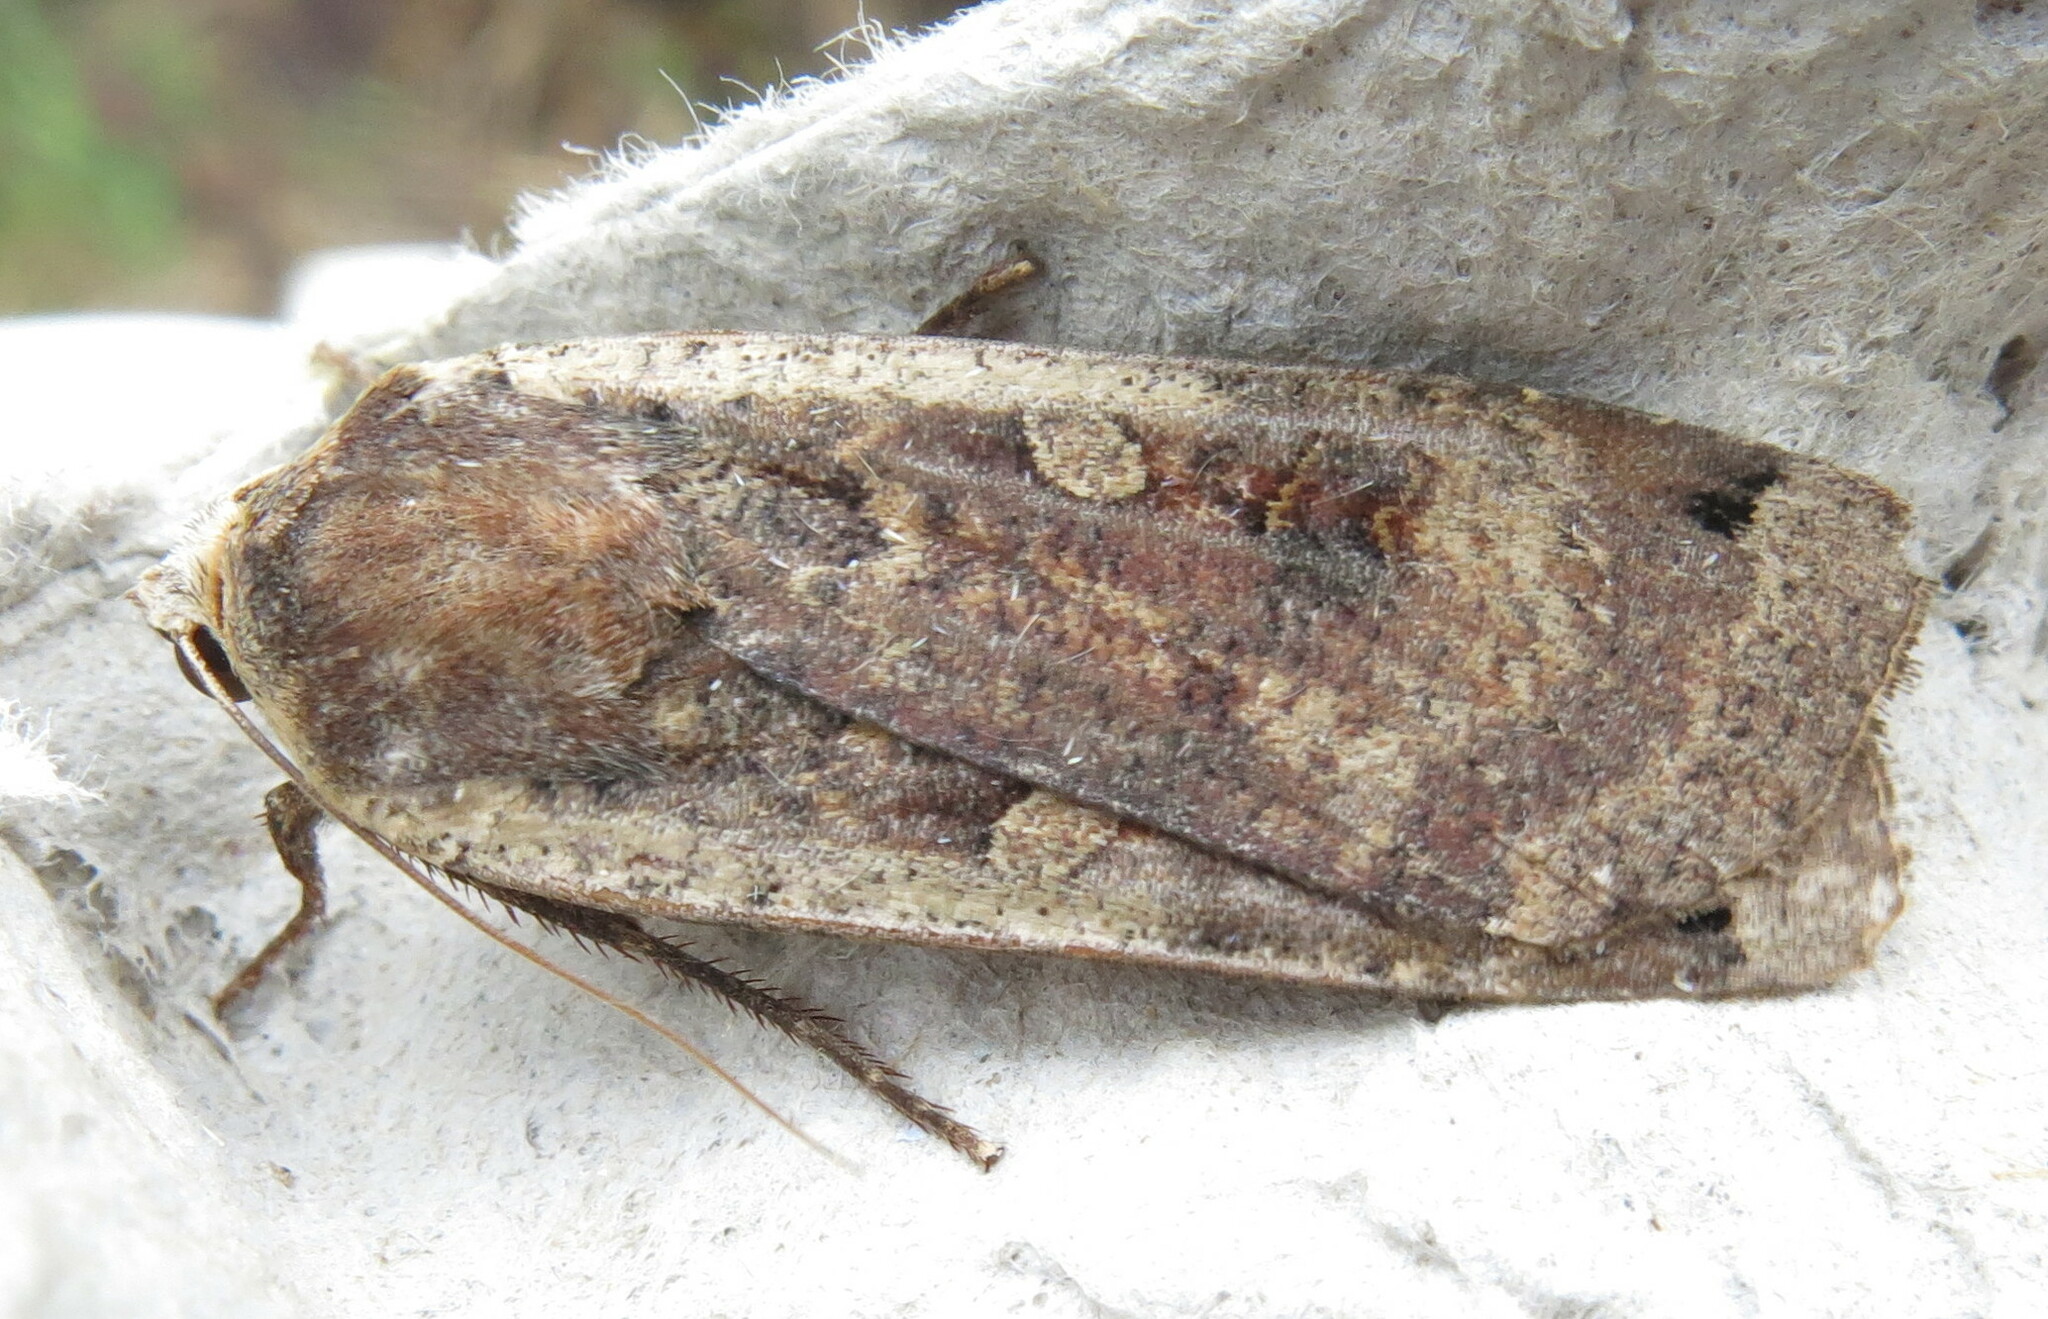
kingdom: Animalia
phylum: Arthropoda
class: Insecta
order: Lepidoptera
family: Noctuidae
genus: Noctua
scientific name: Noctua pronuba
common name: Large yellow underwing
